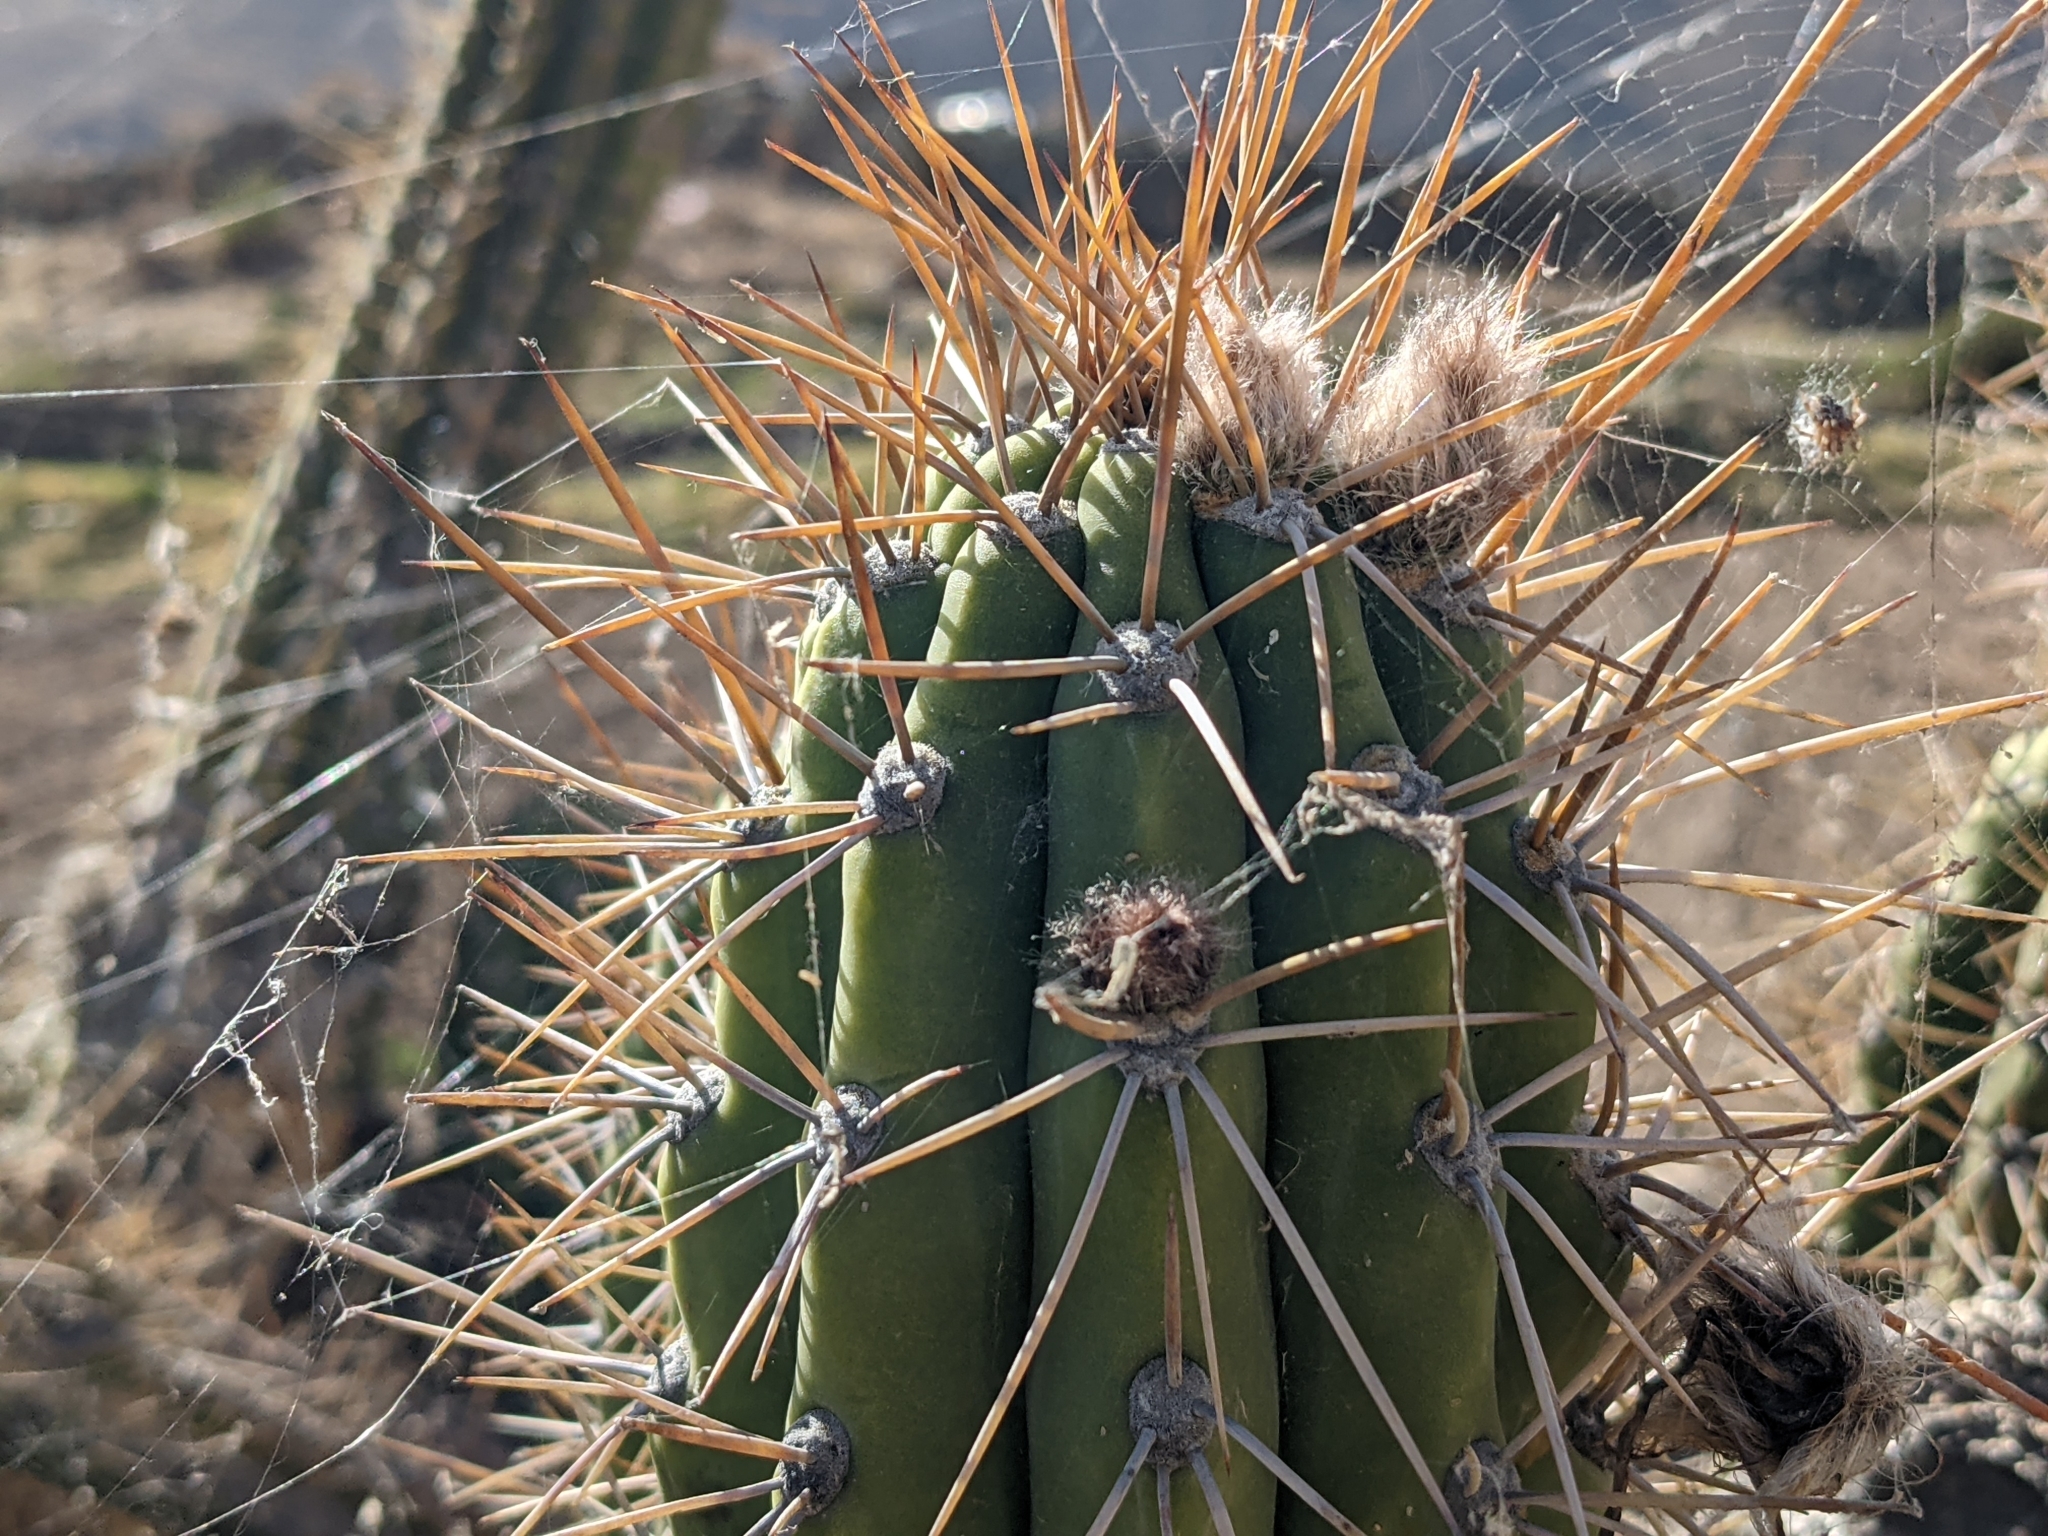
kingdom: Plantae
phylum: Tracheophyta
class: Magnoliopsida
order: Caryophyllales
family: Cactaceae
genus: Trichocereus
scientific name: Trichocereus macrogonus
